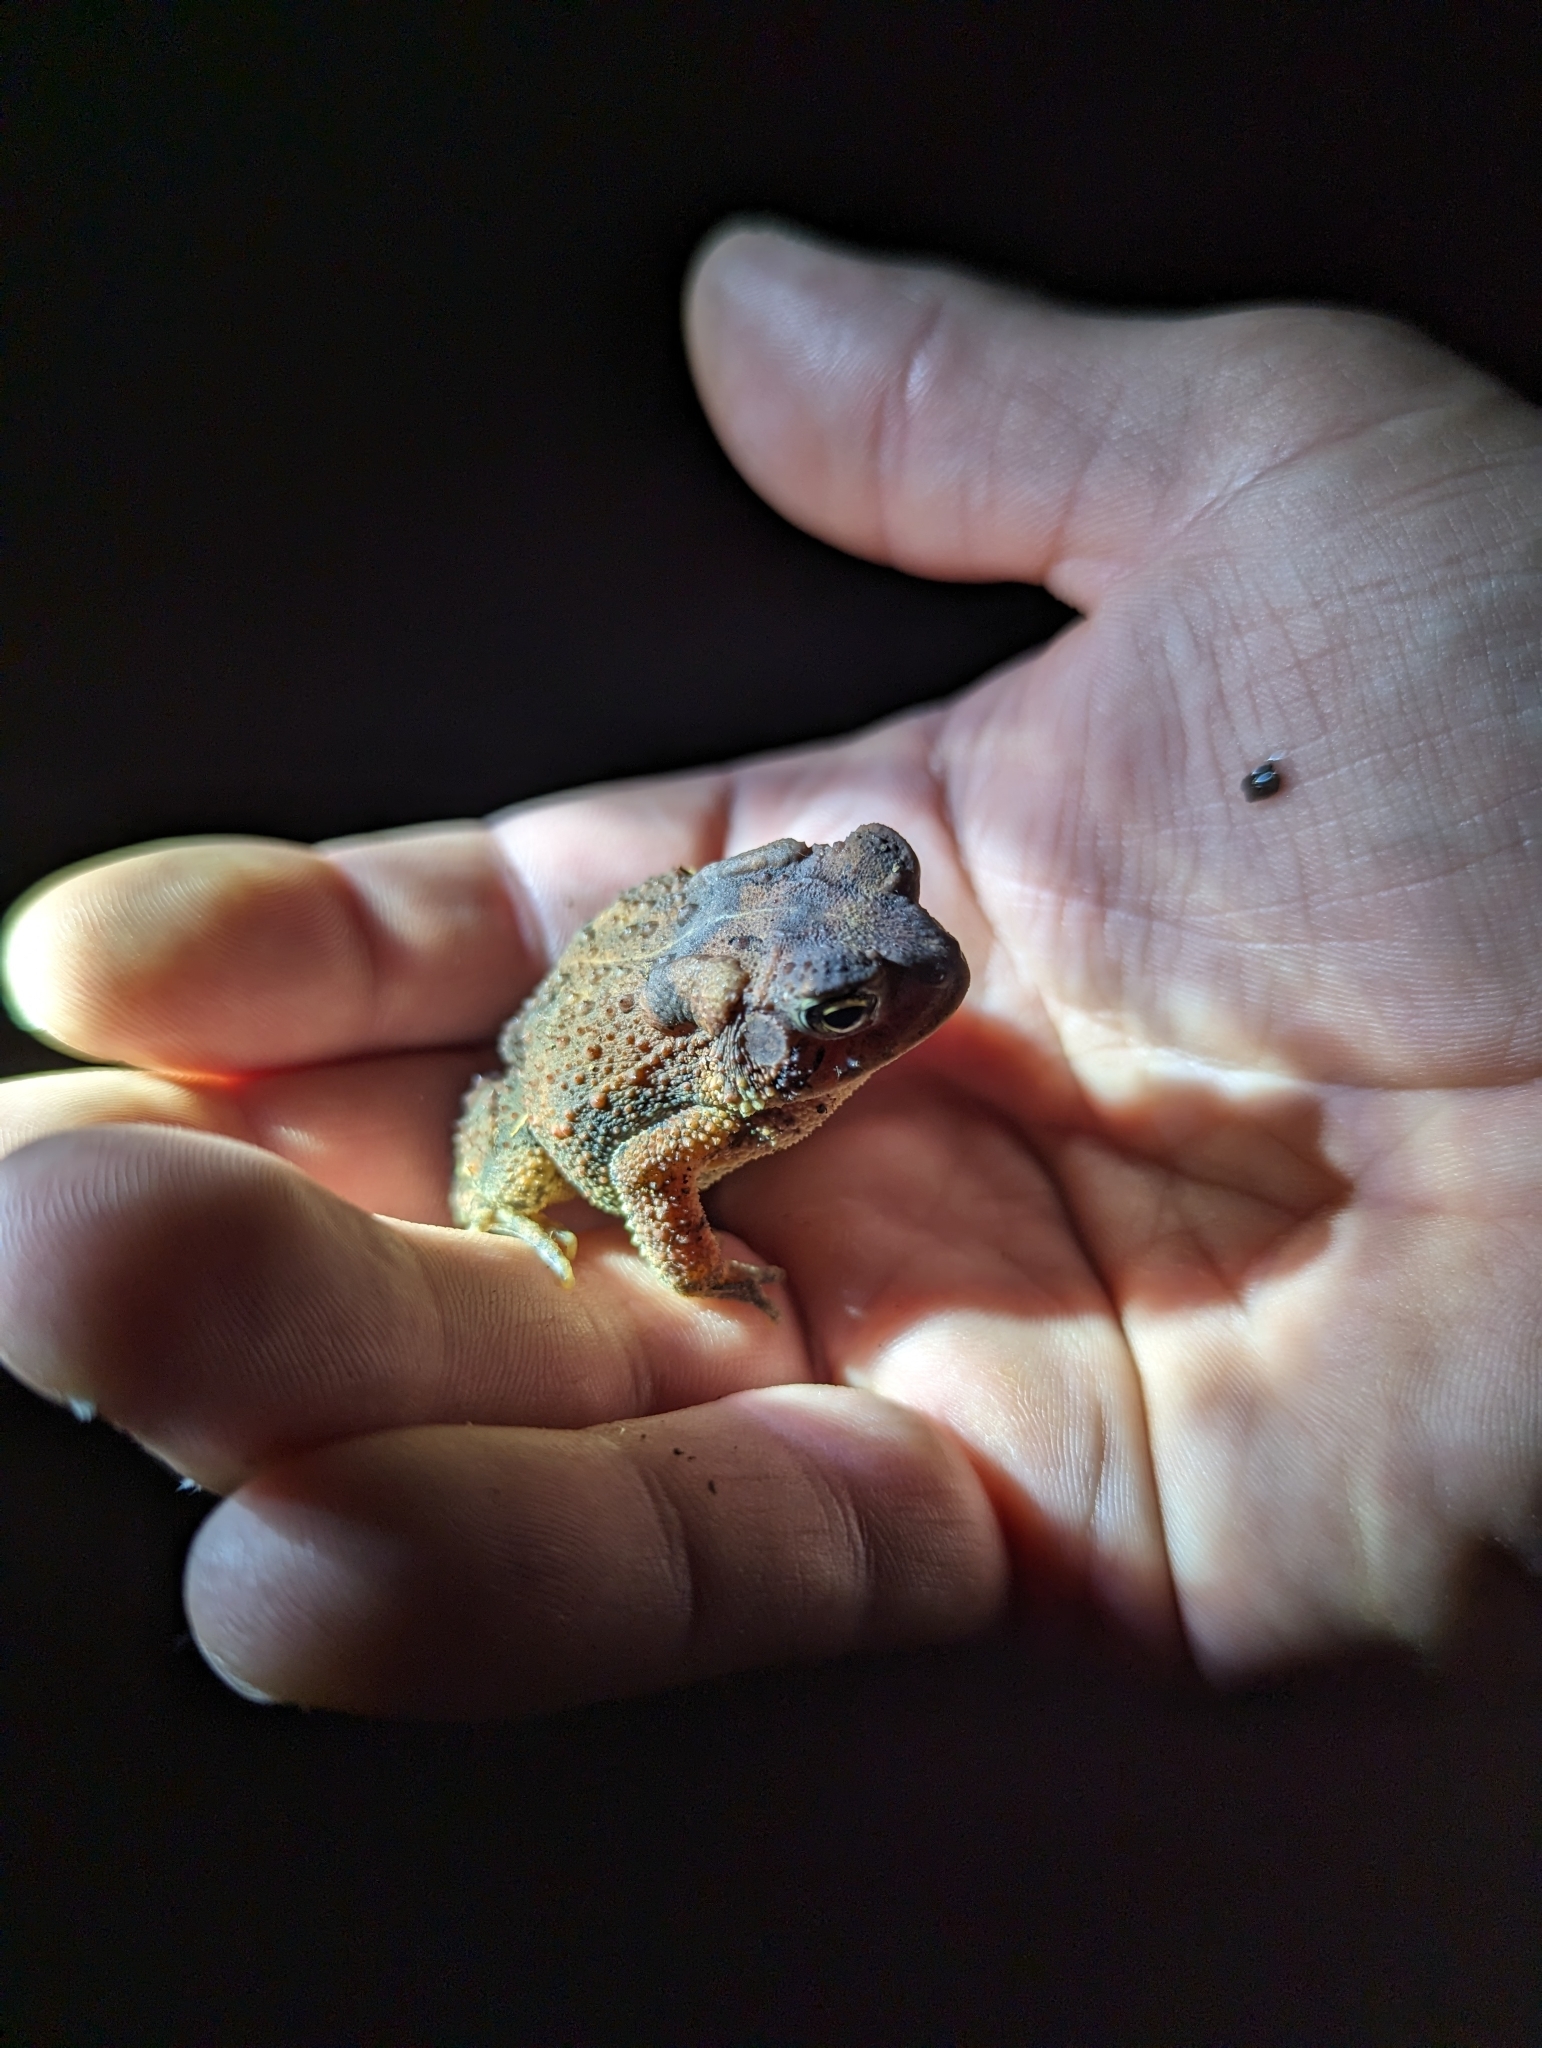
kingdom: Animalia
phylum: Chordata
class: Amphibia
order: Anura
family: Bufonidae
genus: Anaxyrus
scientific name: Anaxyrus americanus
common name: American toad
